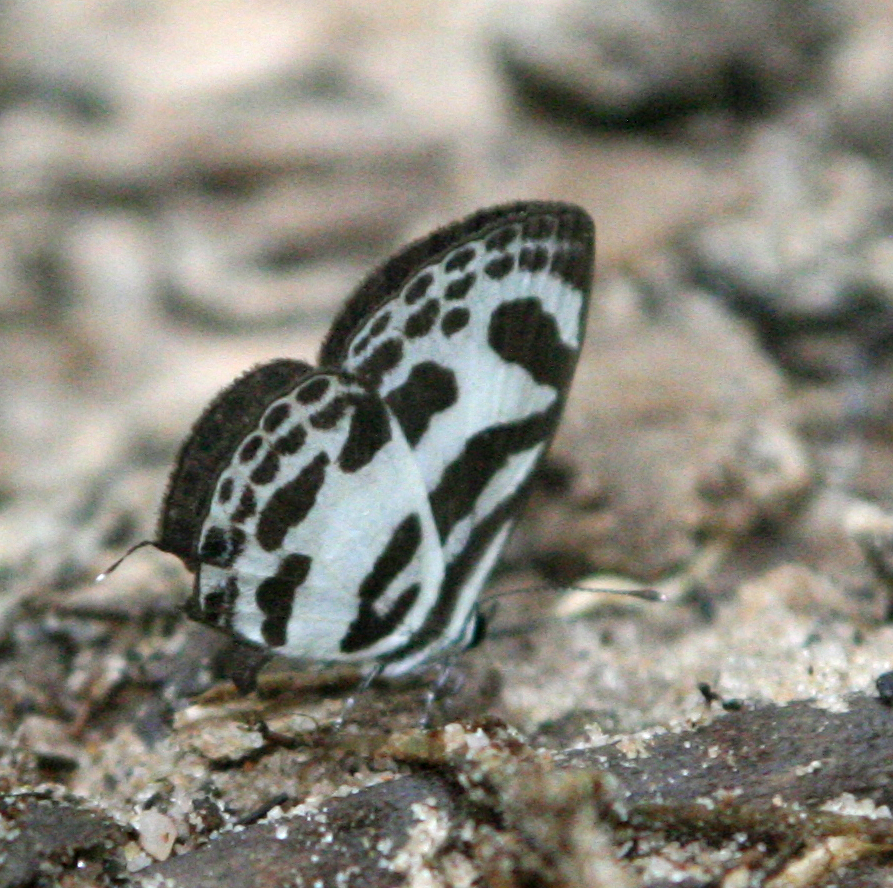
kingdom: Animalia
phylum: Arthropoda
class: Insecta
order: Lepidoptera
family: Lycaenidae
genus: Discolampa
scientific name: Discolampa ethion
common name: Banded blue pierrot
